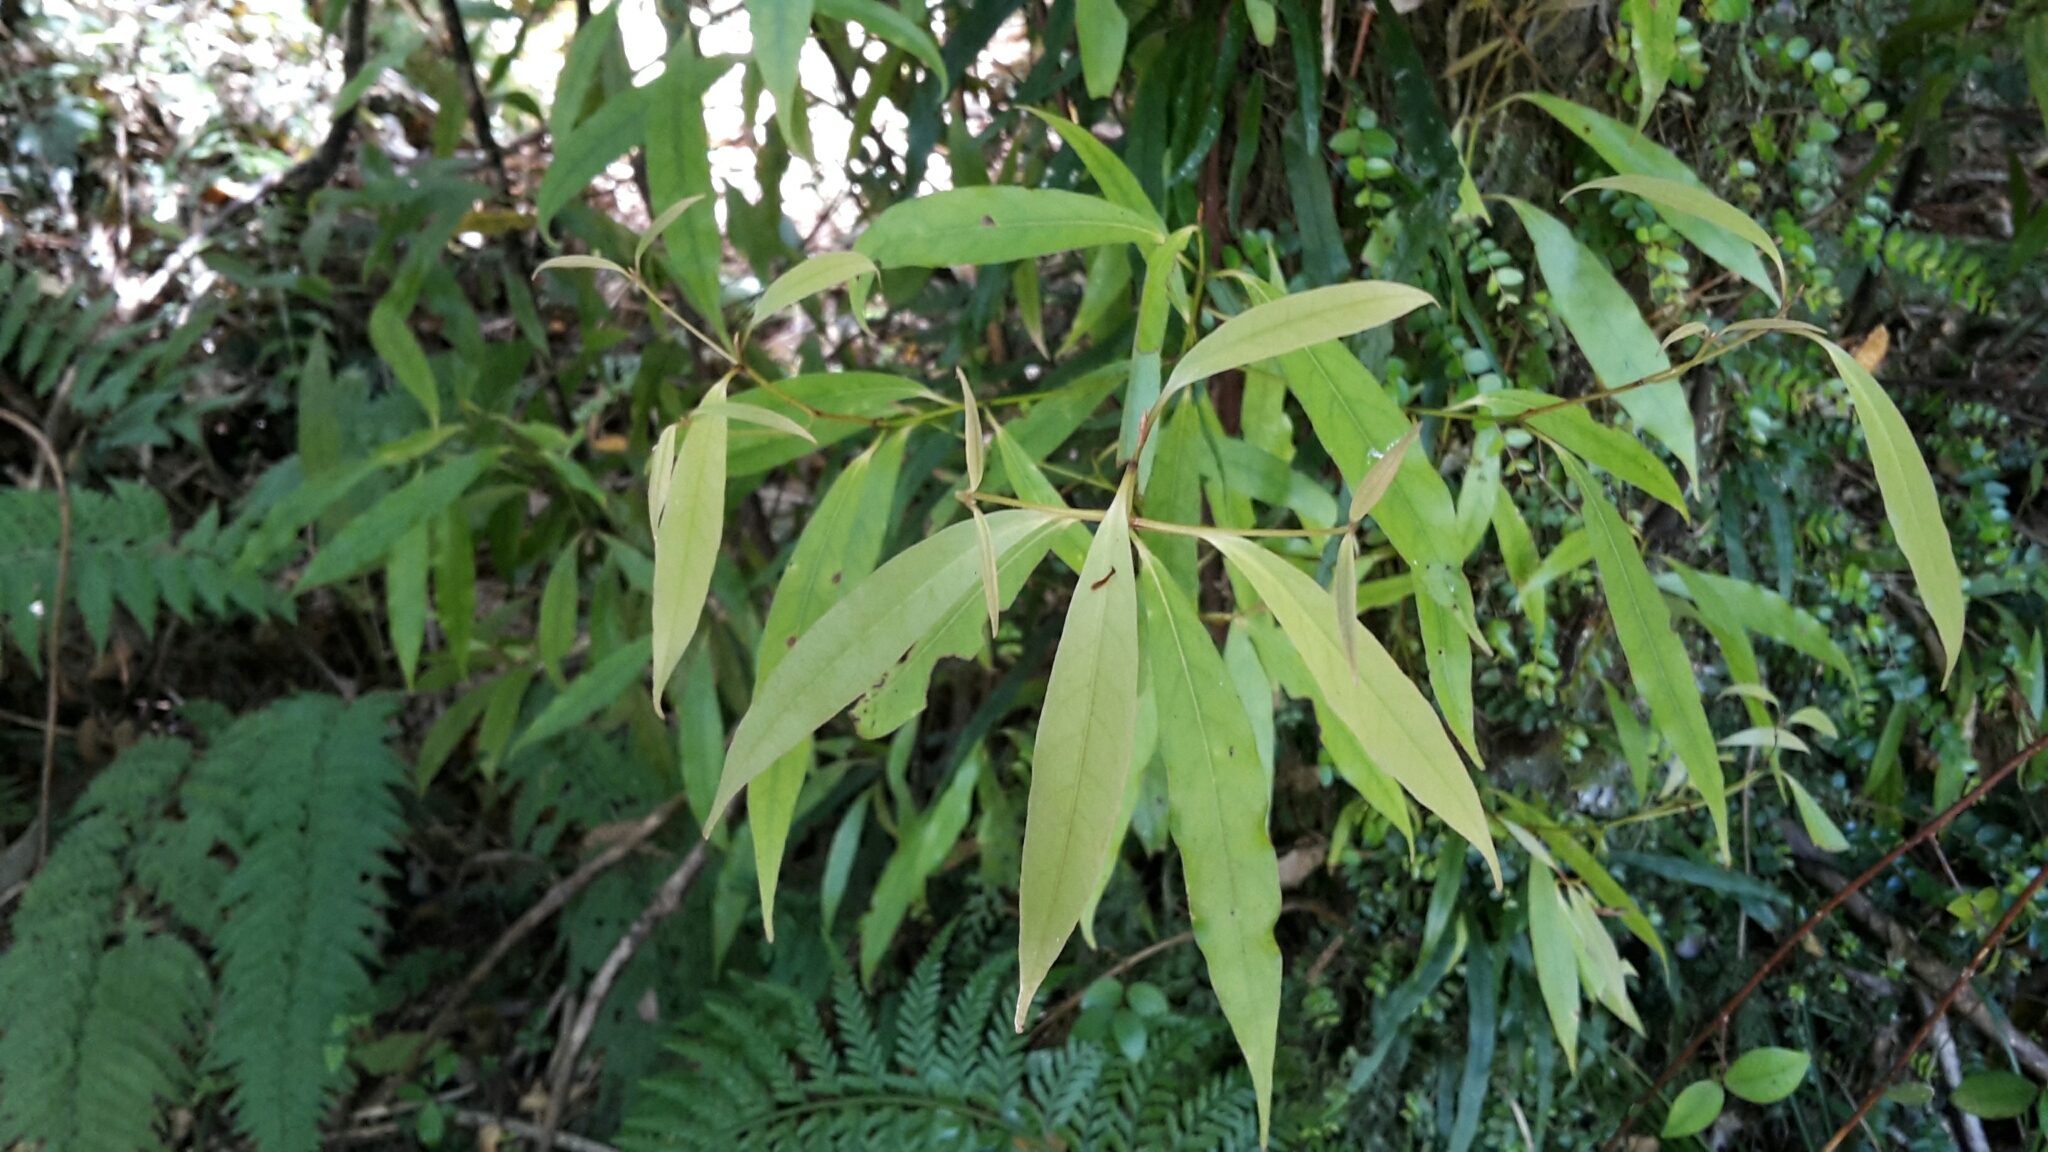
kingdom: Plantae
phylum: Tracheophyta
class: Magnoliopsida
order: Laurales
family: Lauraceae
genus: Beilschmiedia
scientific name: Beilschmiedia tawa
